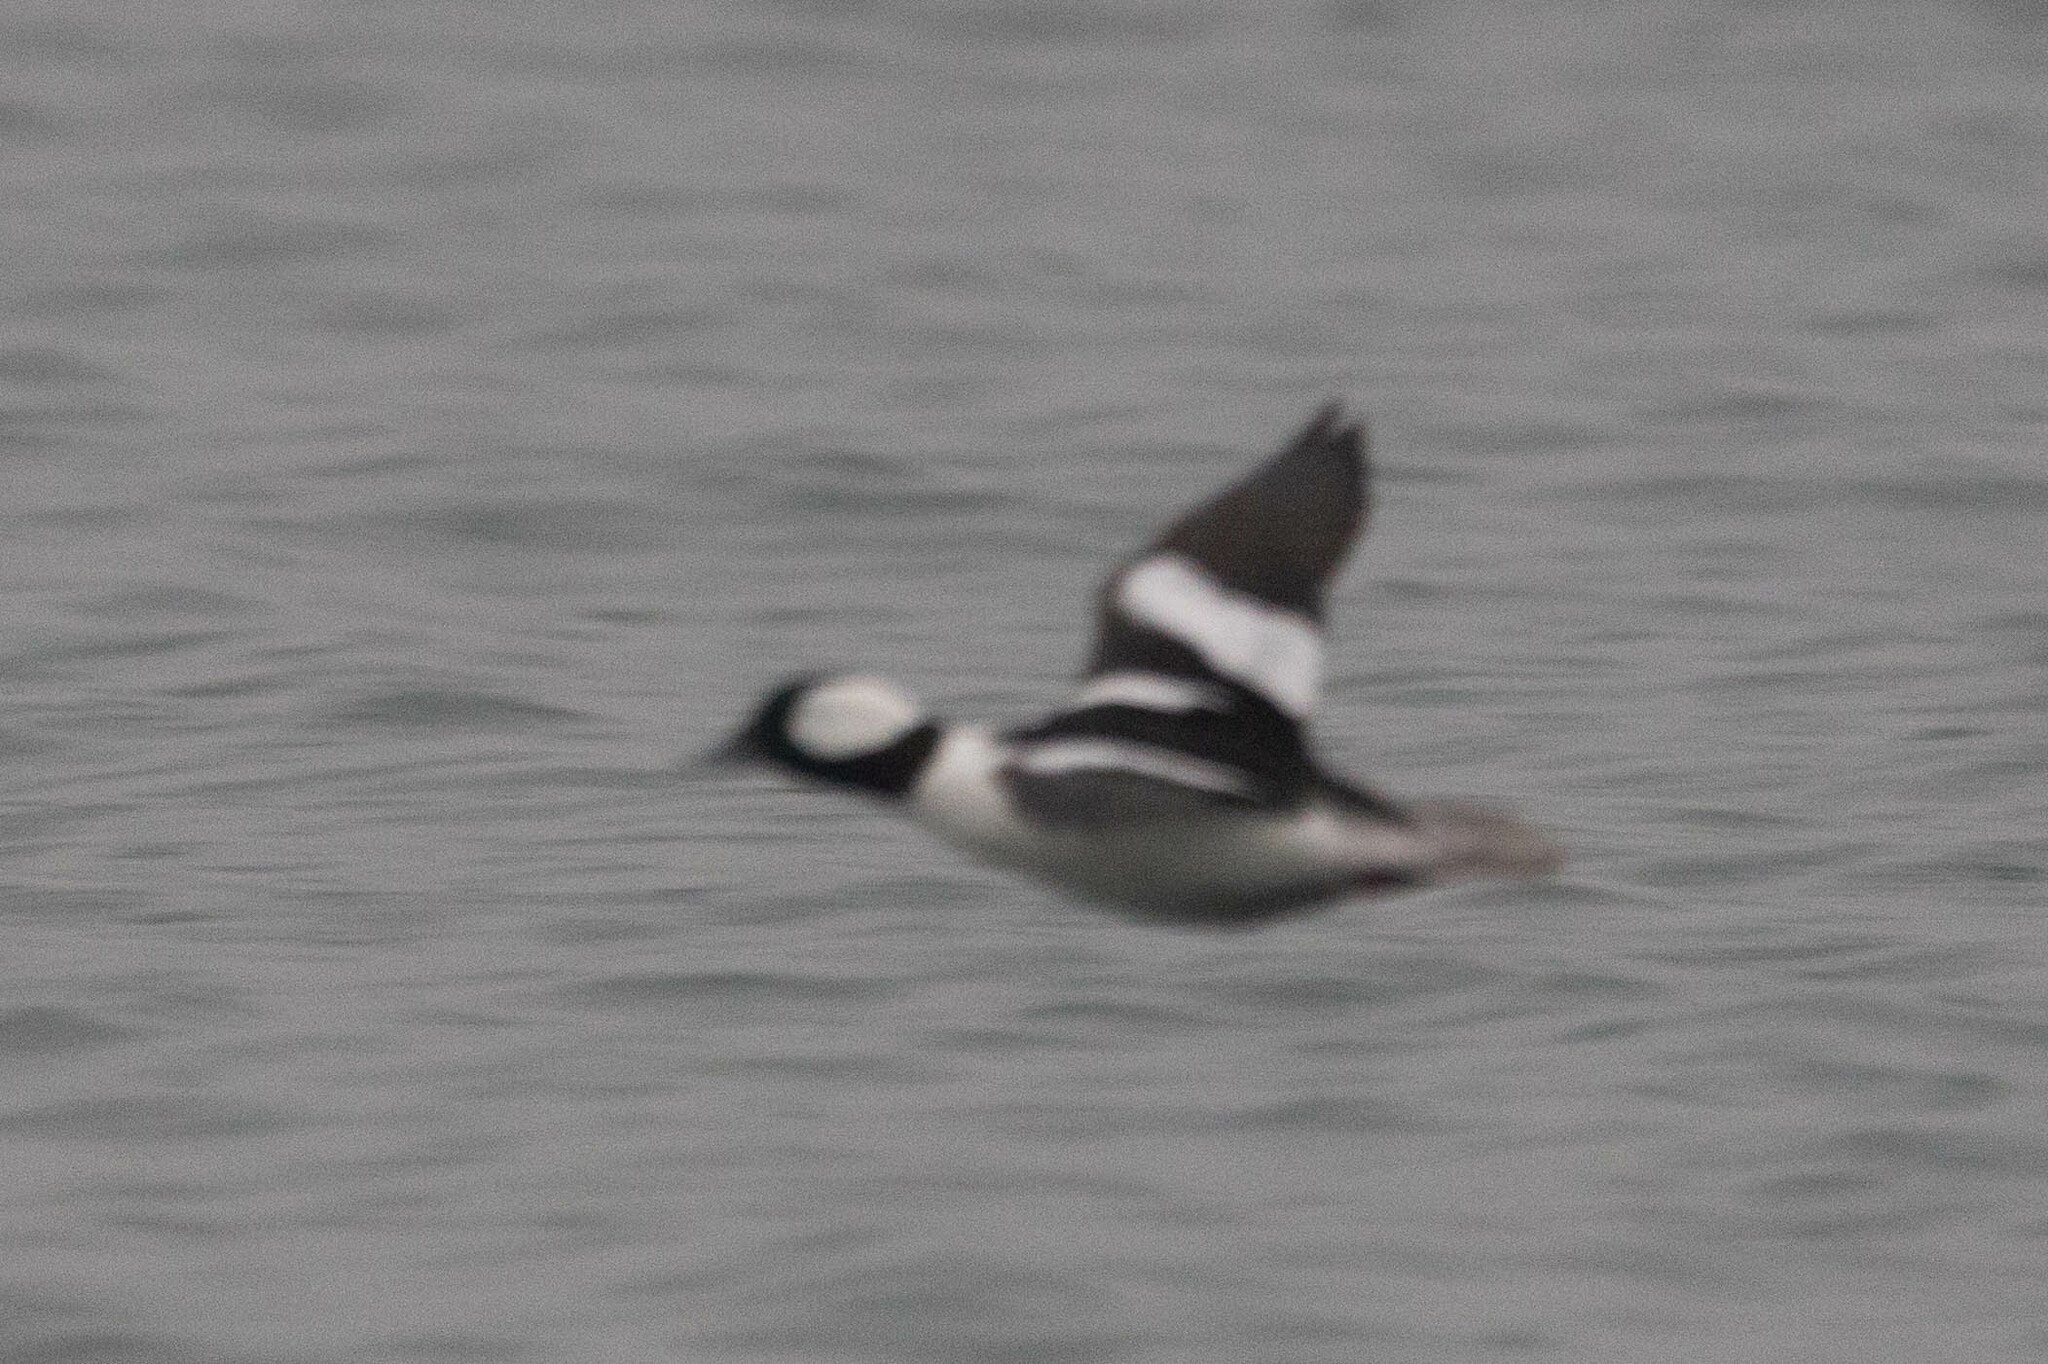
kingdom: Animalia
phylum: Chordata
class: Aves
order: Anseriformes
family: Anatidae
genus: Bucephala
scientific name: Bucephala albeola
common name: Bufflehead
